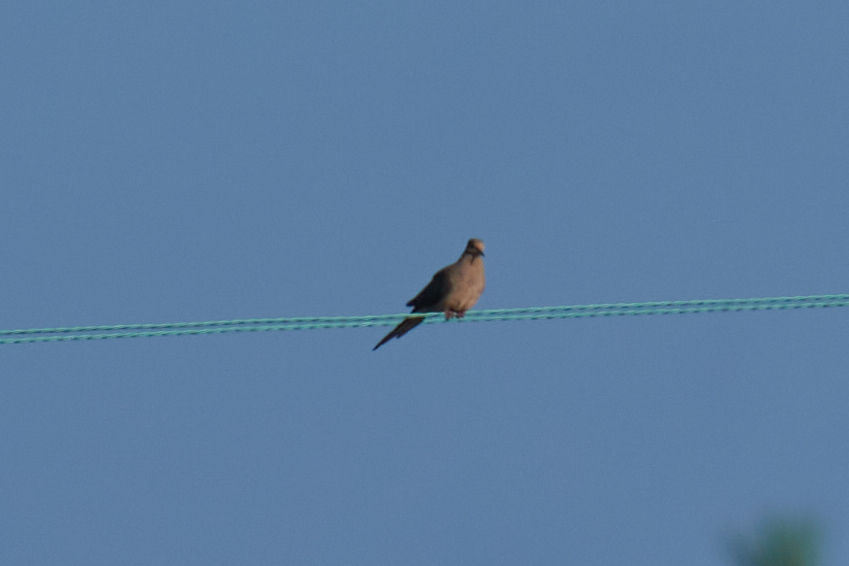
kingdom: Animalia
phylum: Chordata
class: Aves
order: Columbiformes
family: Columbidae
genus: Zenaida
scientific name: Zenaida macroura
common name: Mourning dove
